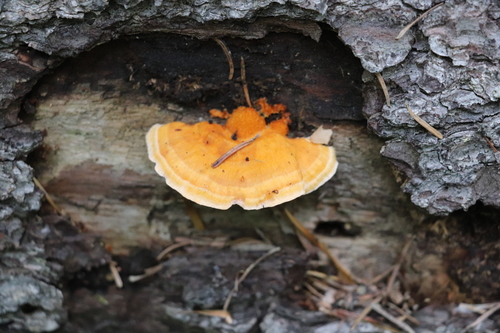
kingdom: Fungi
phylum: Basidiomycota
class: Agaricomycetes
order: Polyporales
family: Pycnoporellaceae
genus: Pycnoporellus
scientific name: Pycnoporellus fulgens
